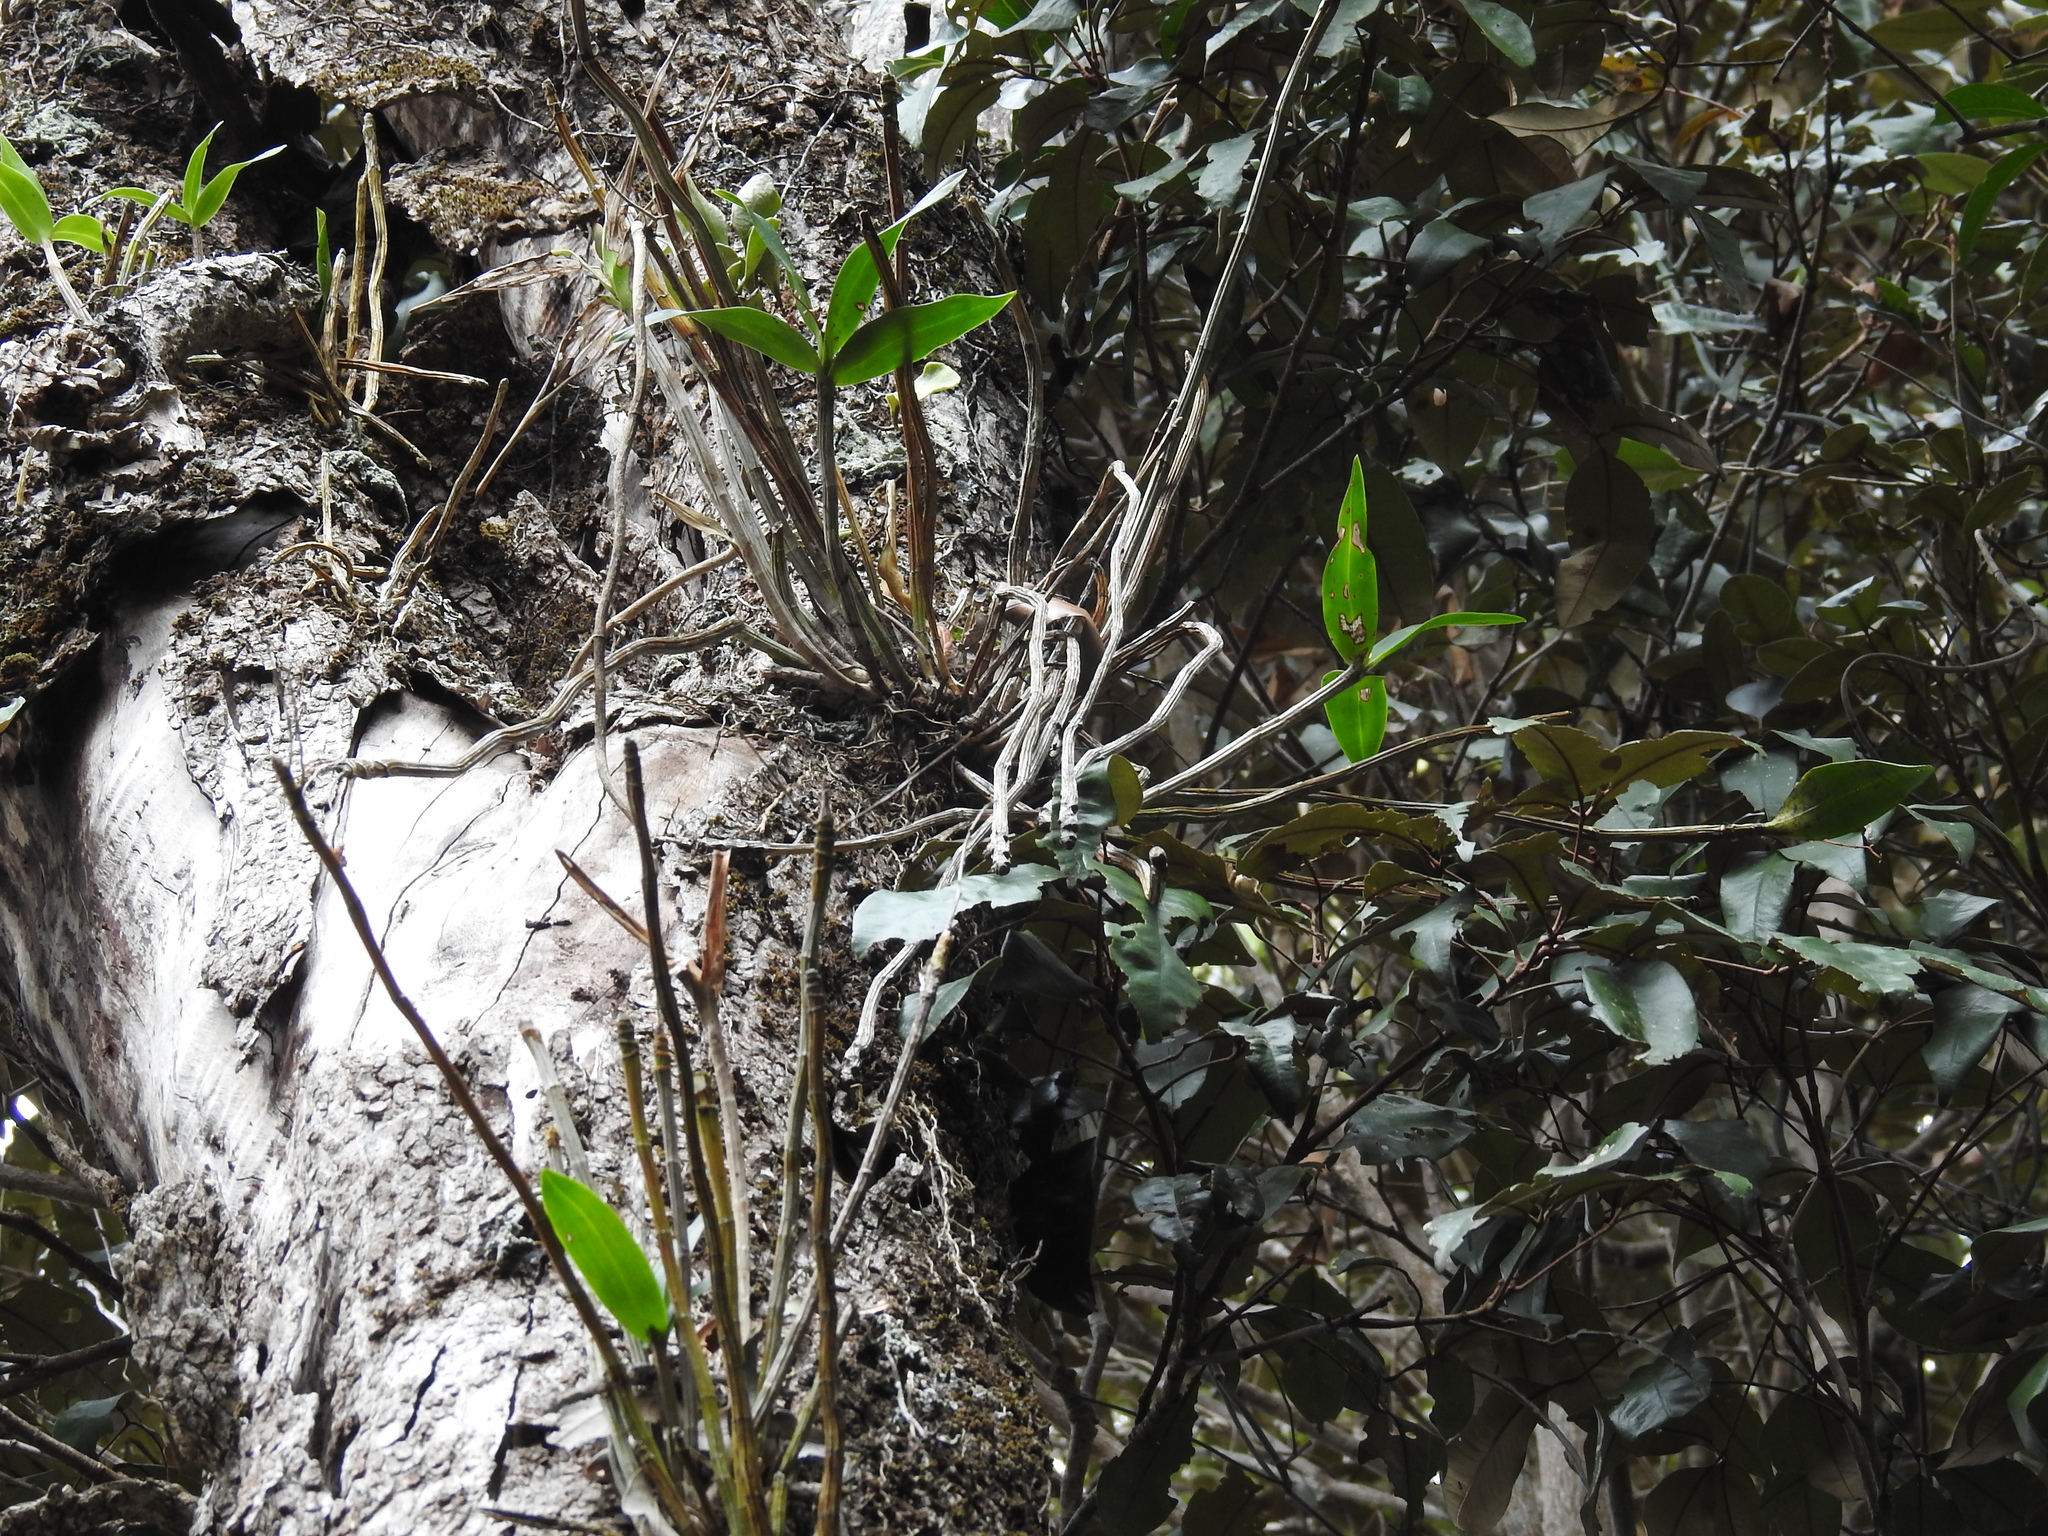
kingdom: Plantae
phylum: Tracheophyta
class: Liliopsida
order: Asparagales
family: Orchidaceae
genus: Dendrobium
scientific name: Dendrobium gracilicaule
